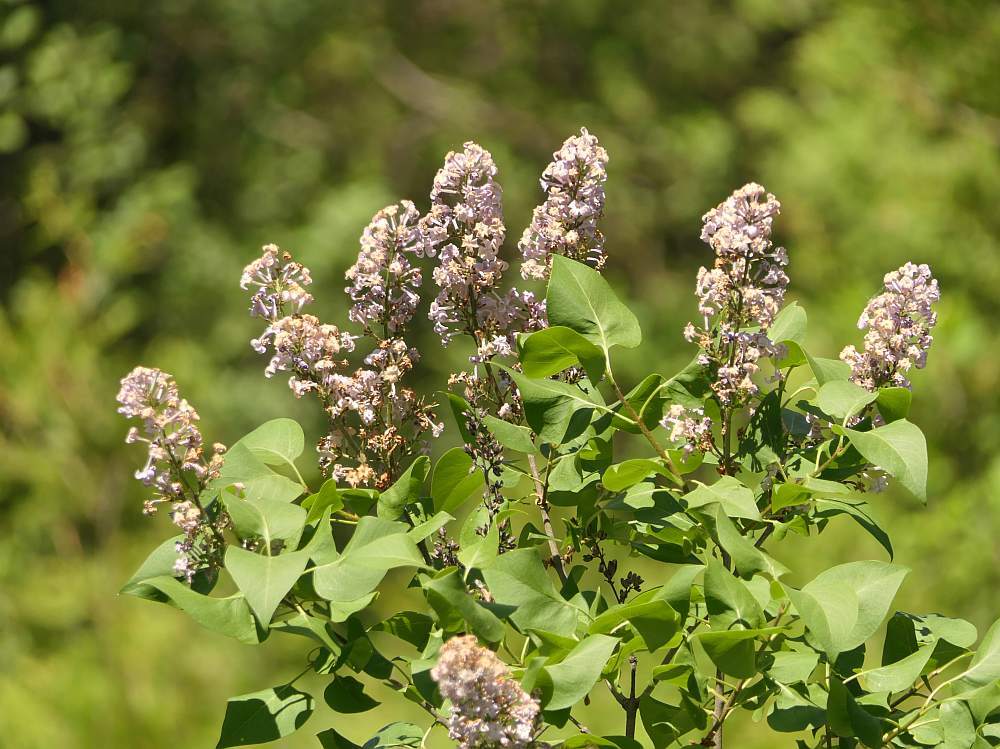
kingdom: Plantae
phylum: Tracheophyta
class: Magnoliopsida
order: Lamiales
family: Oleaceae
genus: Syringa
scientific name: Syringa vulgaris
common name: Common lilac
